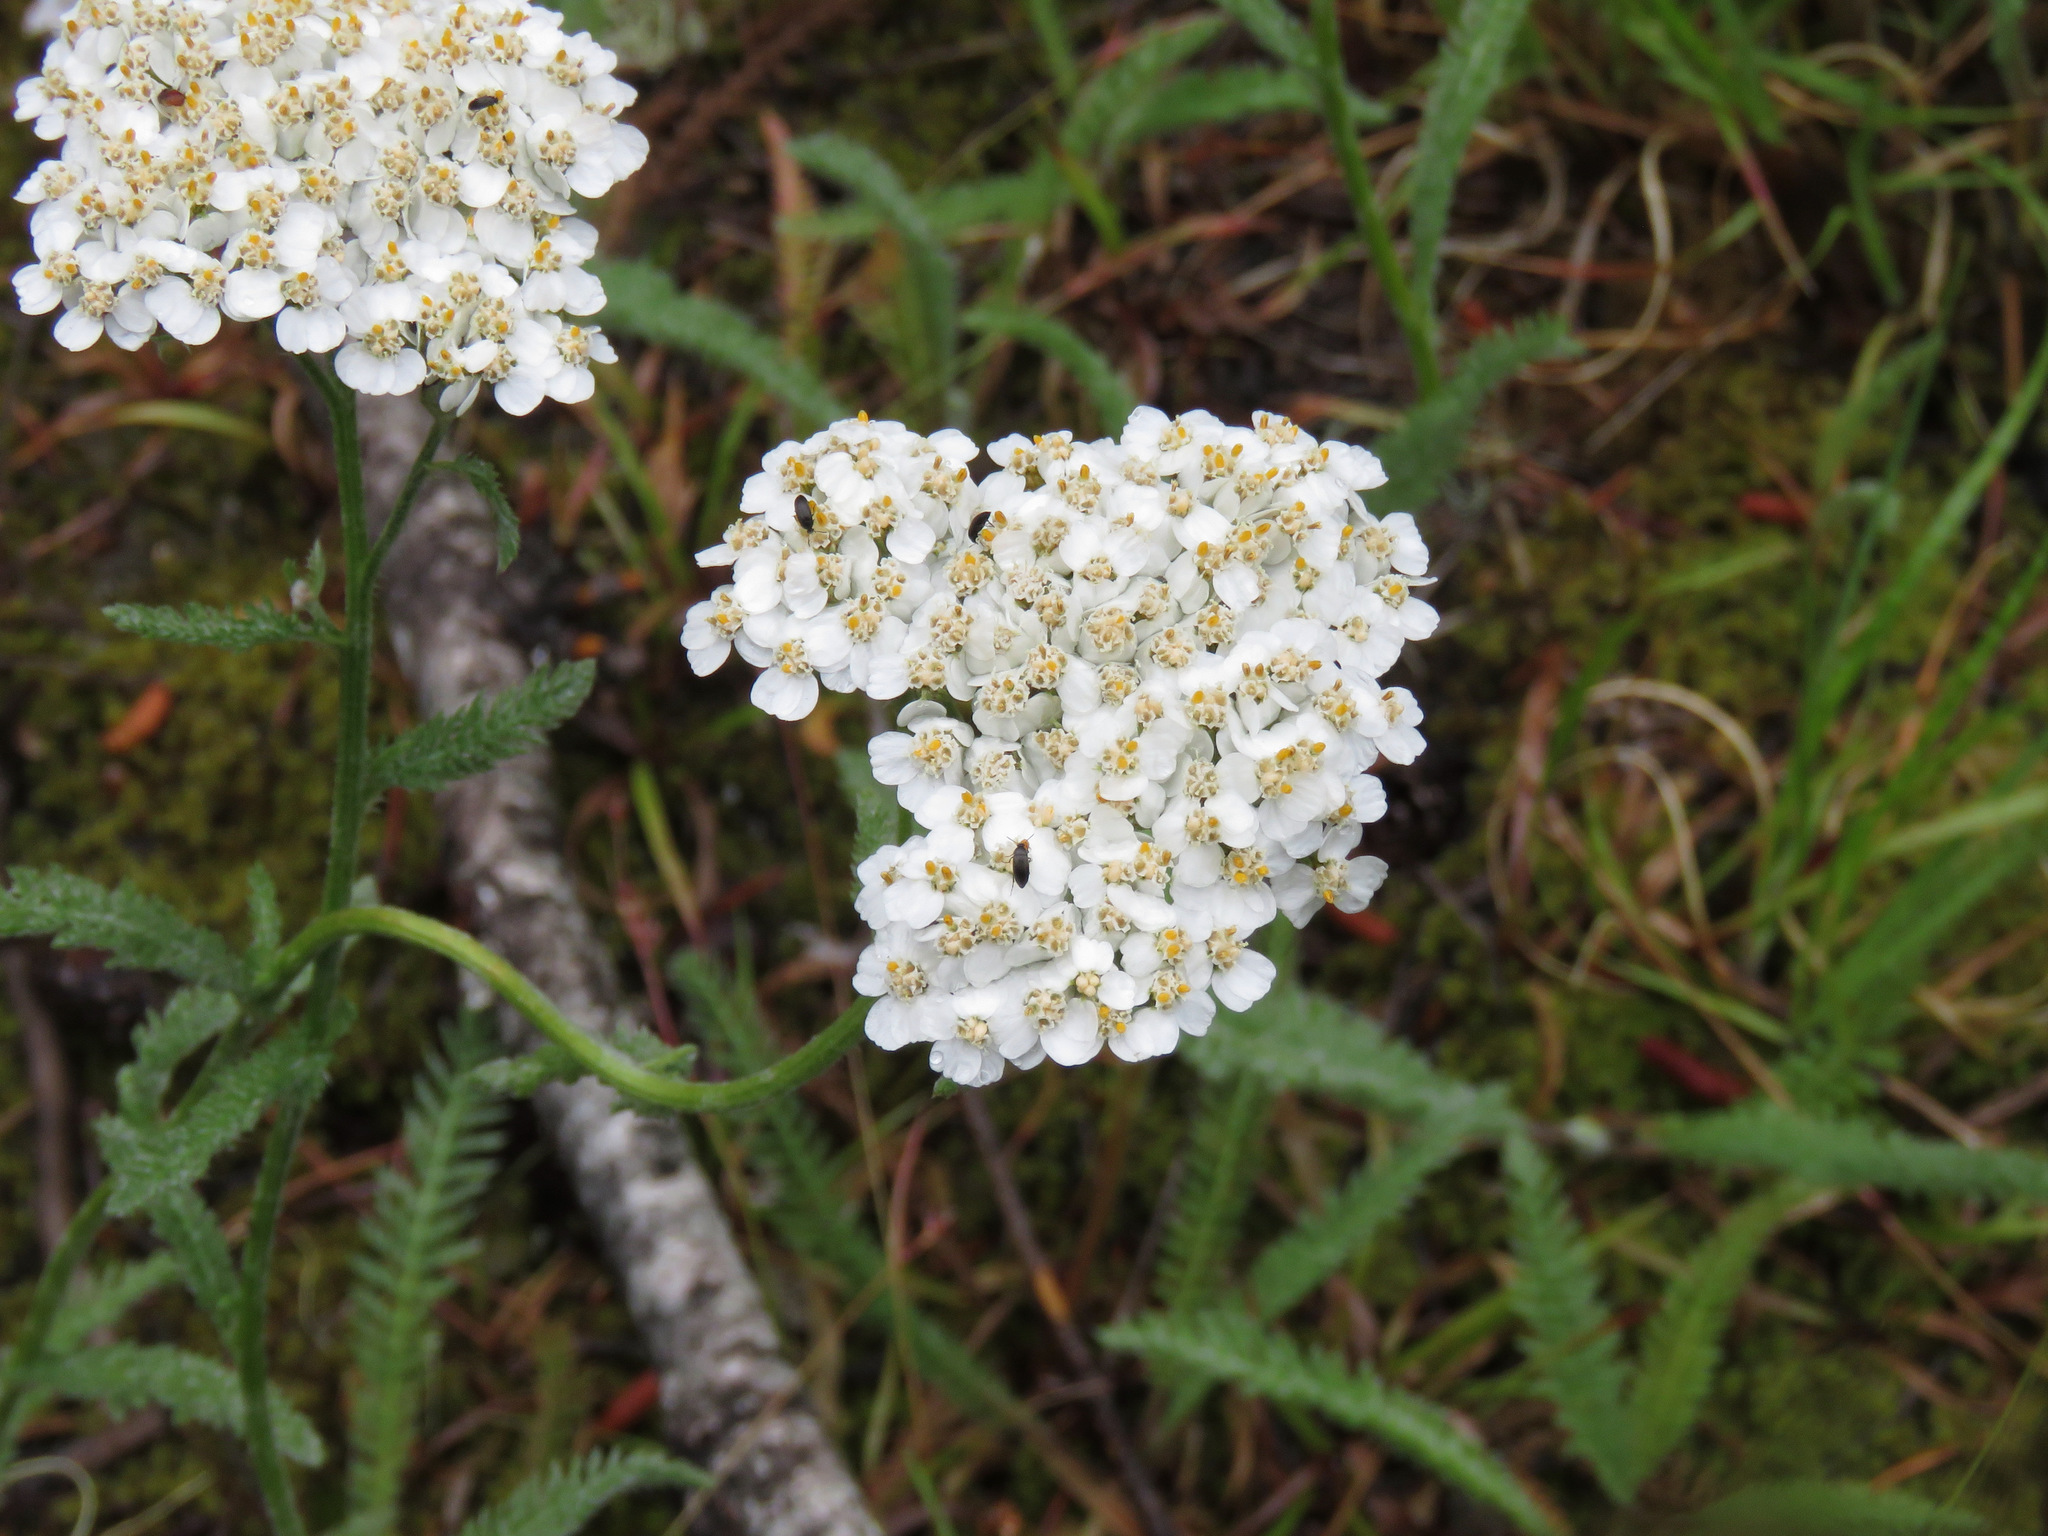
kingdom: Plantae
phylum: Tracheophyta
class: Magnoliopsida
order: Asterales
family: Asteraceae
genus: Achillea
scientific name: Achillea millefolium
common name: Yarrow
